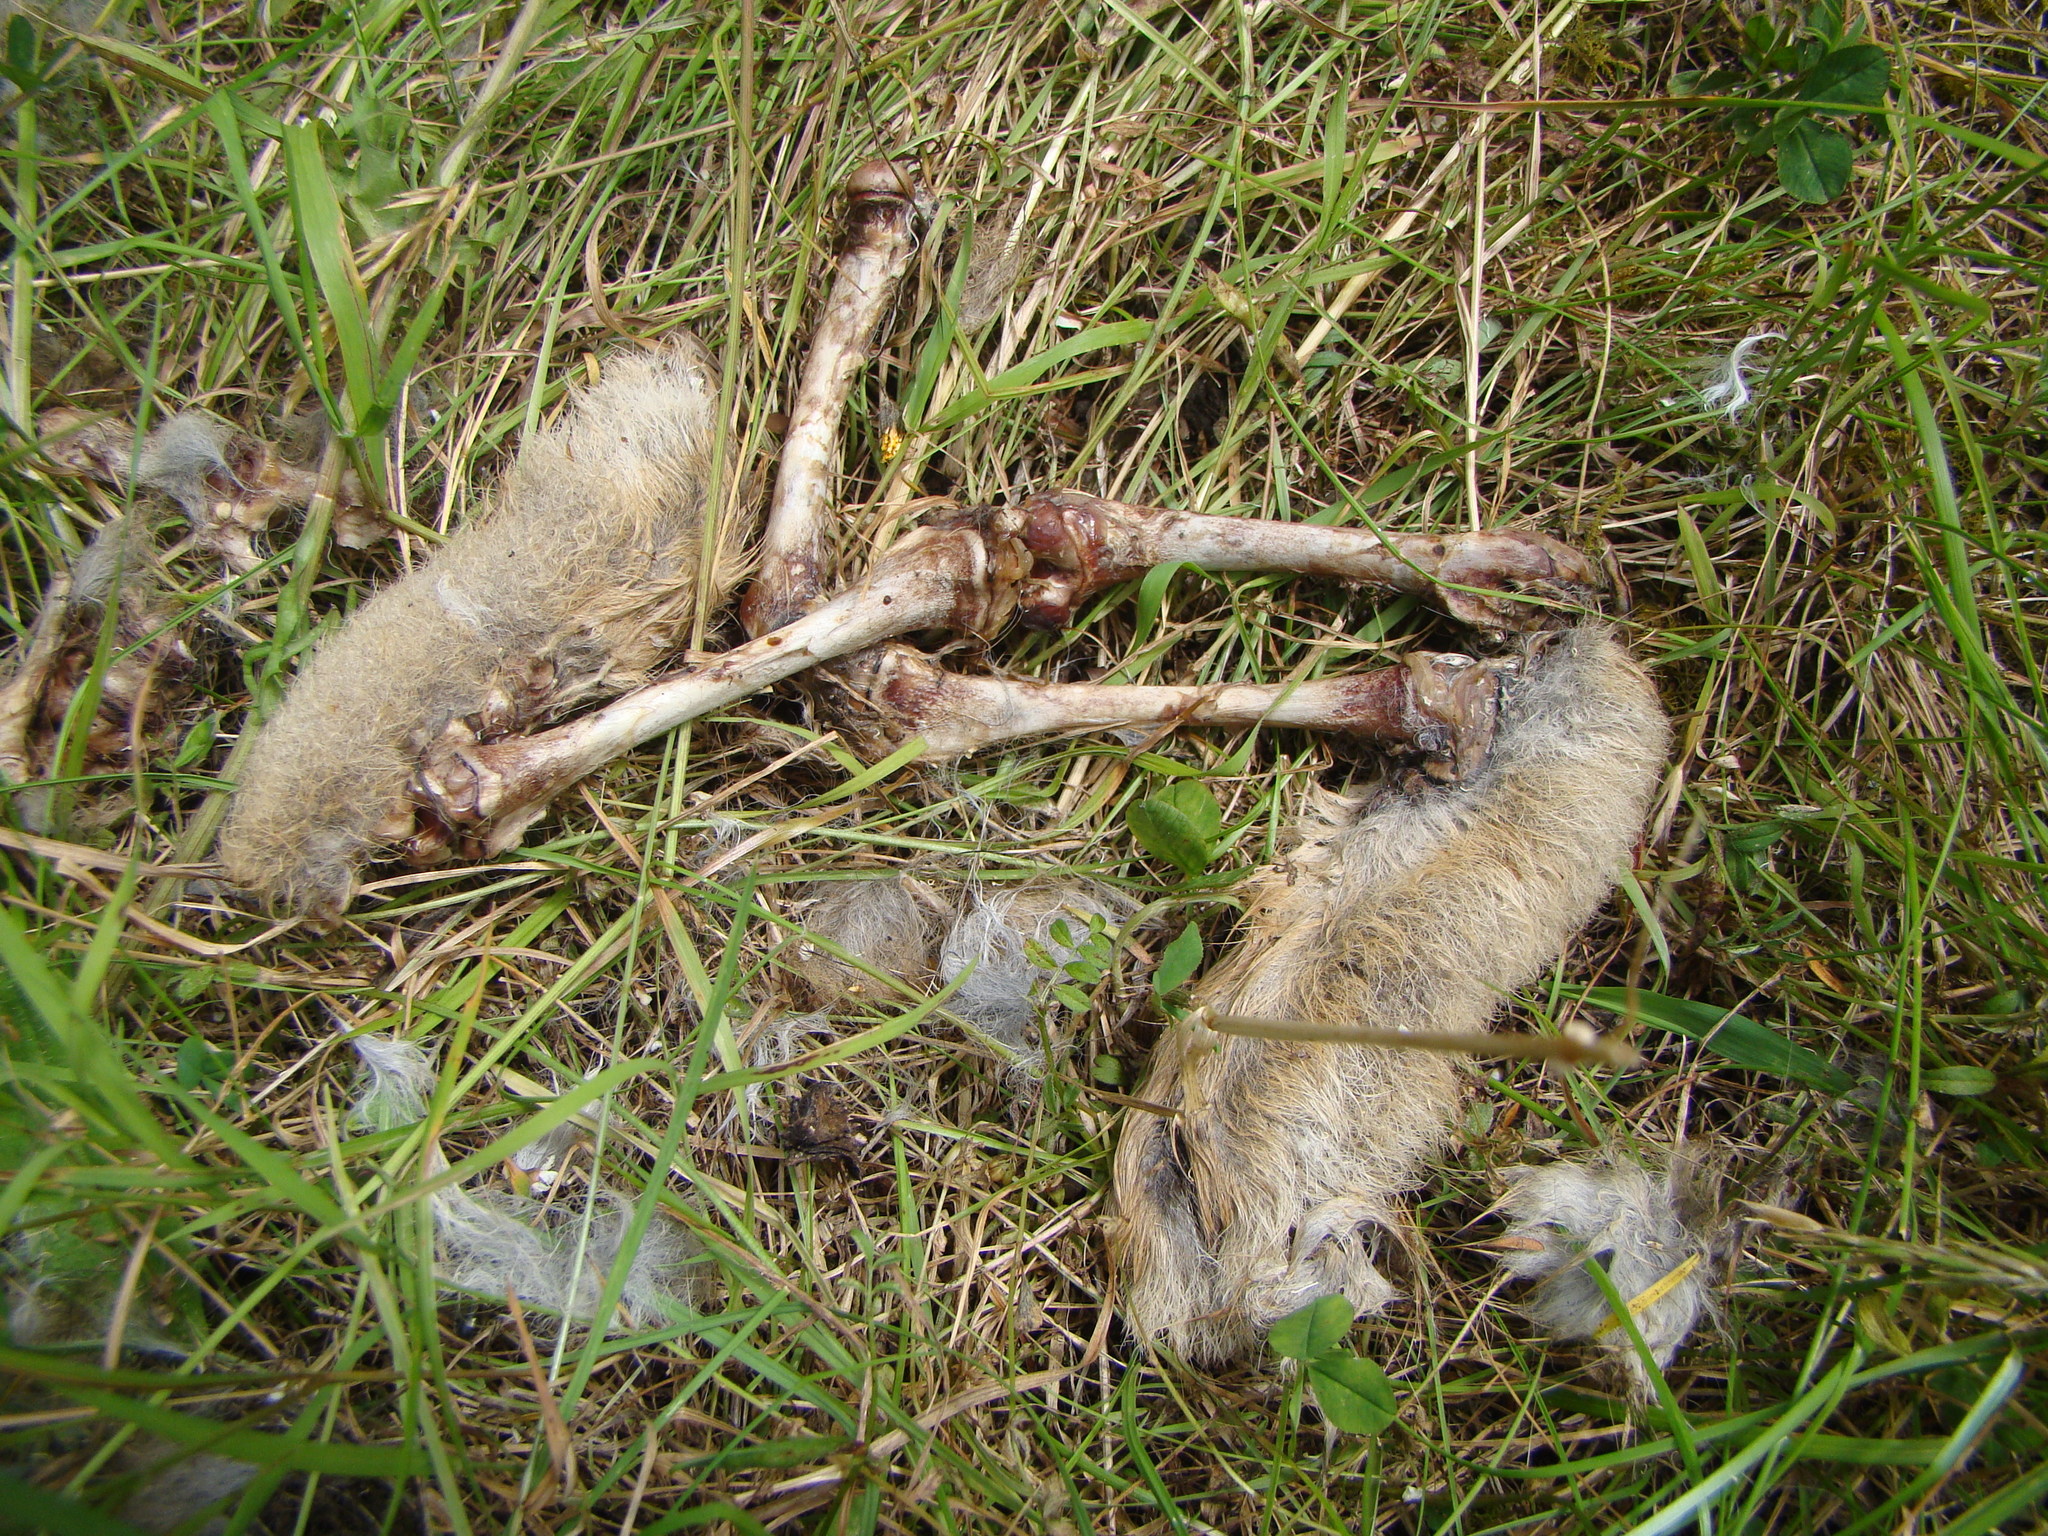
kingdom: Animalia
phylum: Chordata
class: Mammalia
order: Lagomorpha
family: Leporidae
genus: Oryctolagus
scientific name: Oryctolagus cuniculus
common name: European rabbit
